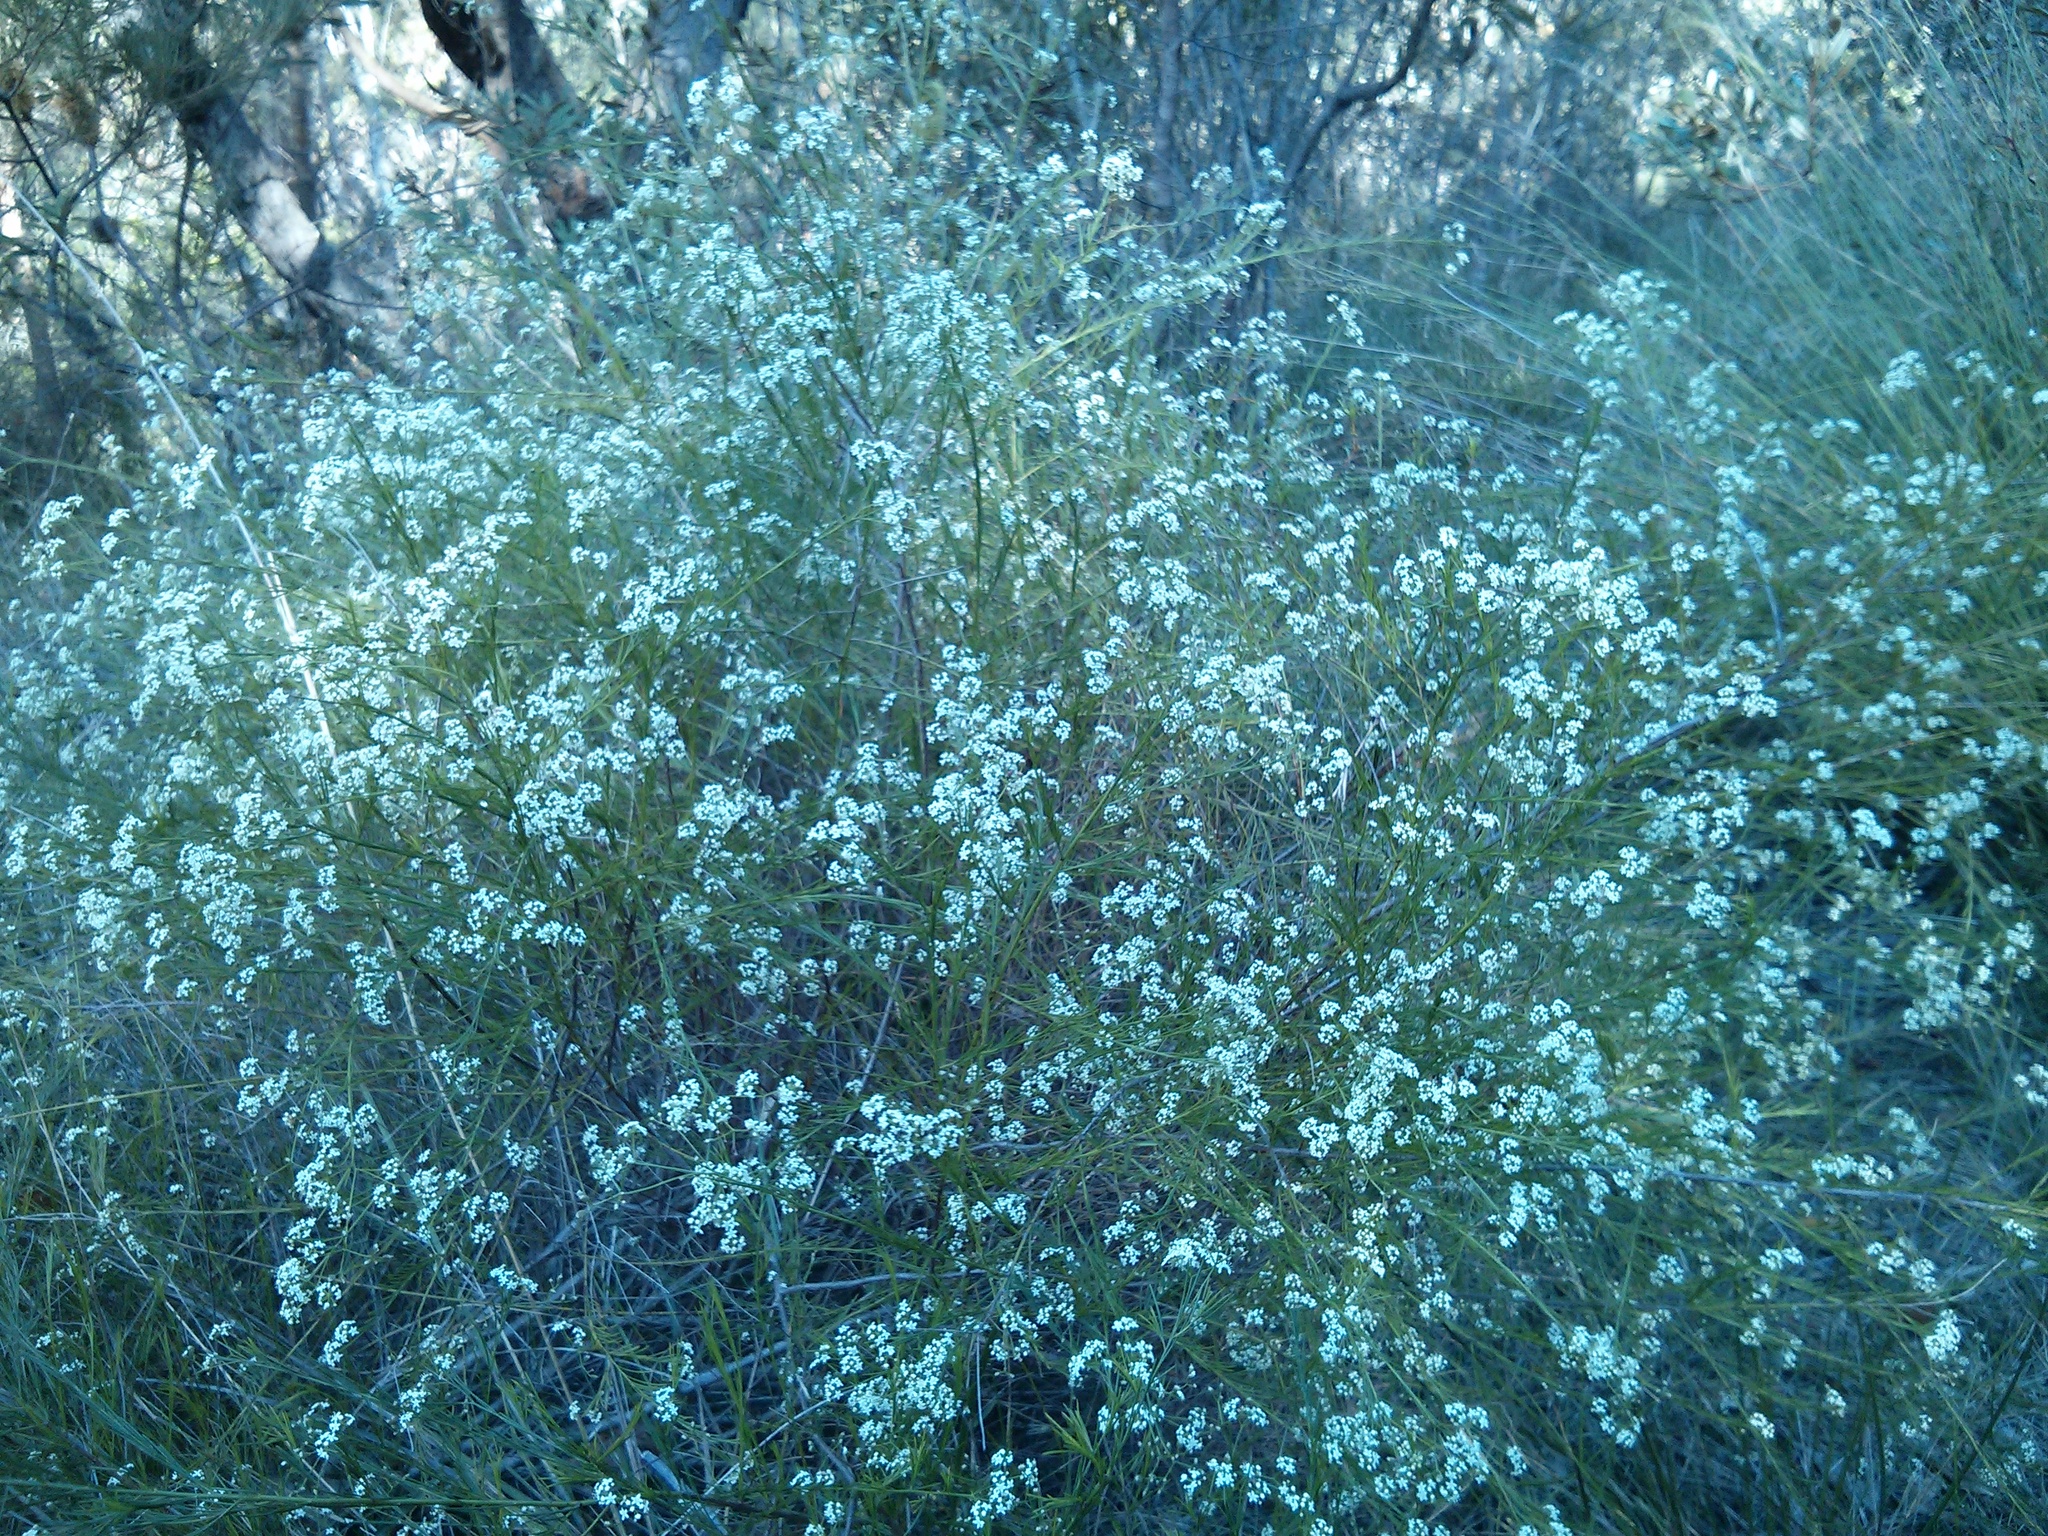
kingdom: Plantae
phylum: Tracheophyta
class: Magnoliopsida
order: Apiales
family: Apiaceae
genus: Platysace
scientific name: Platysace linearifolia
